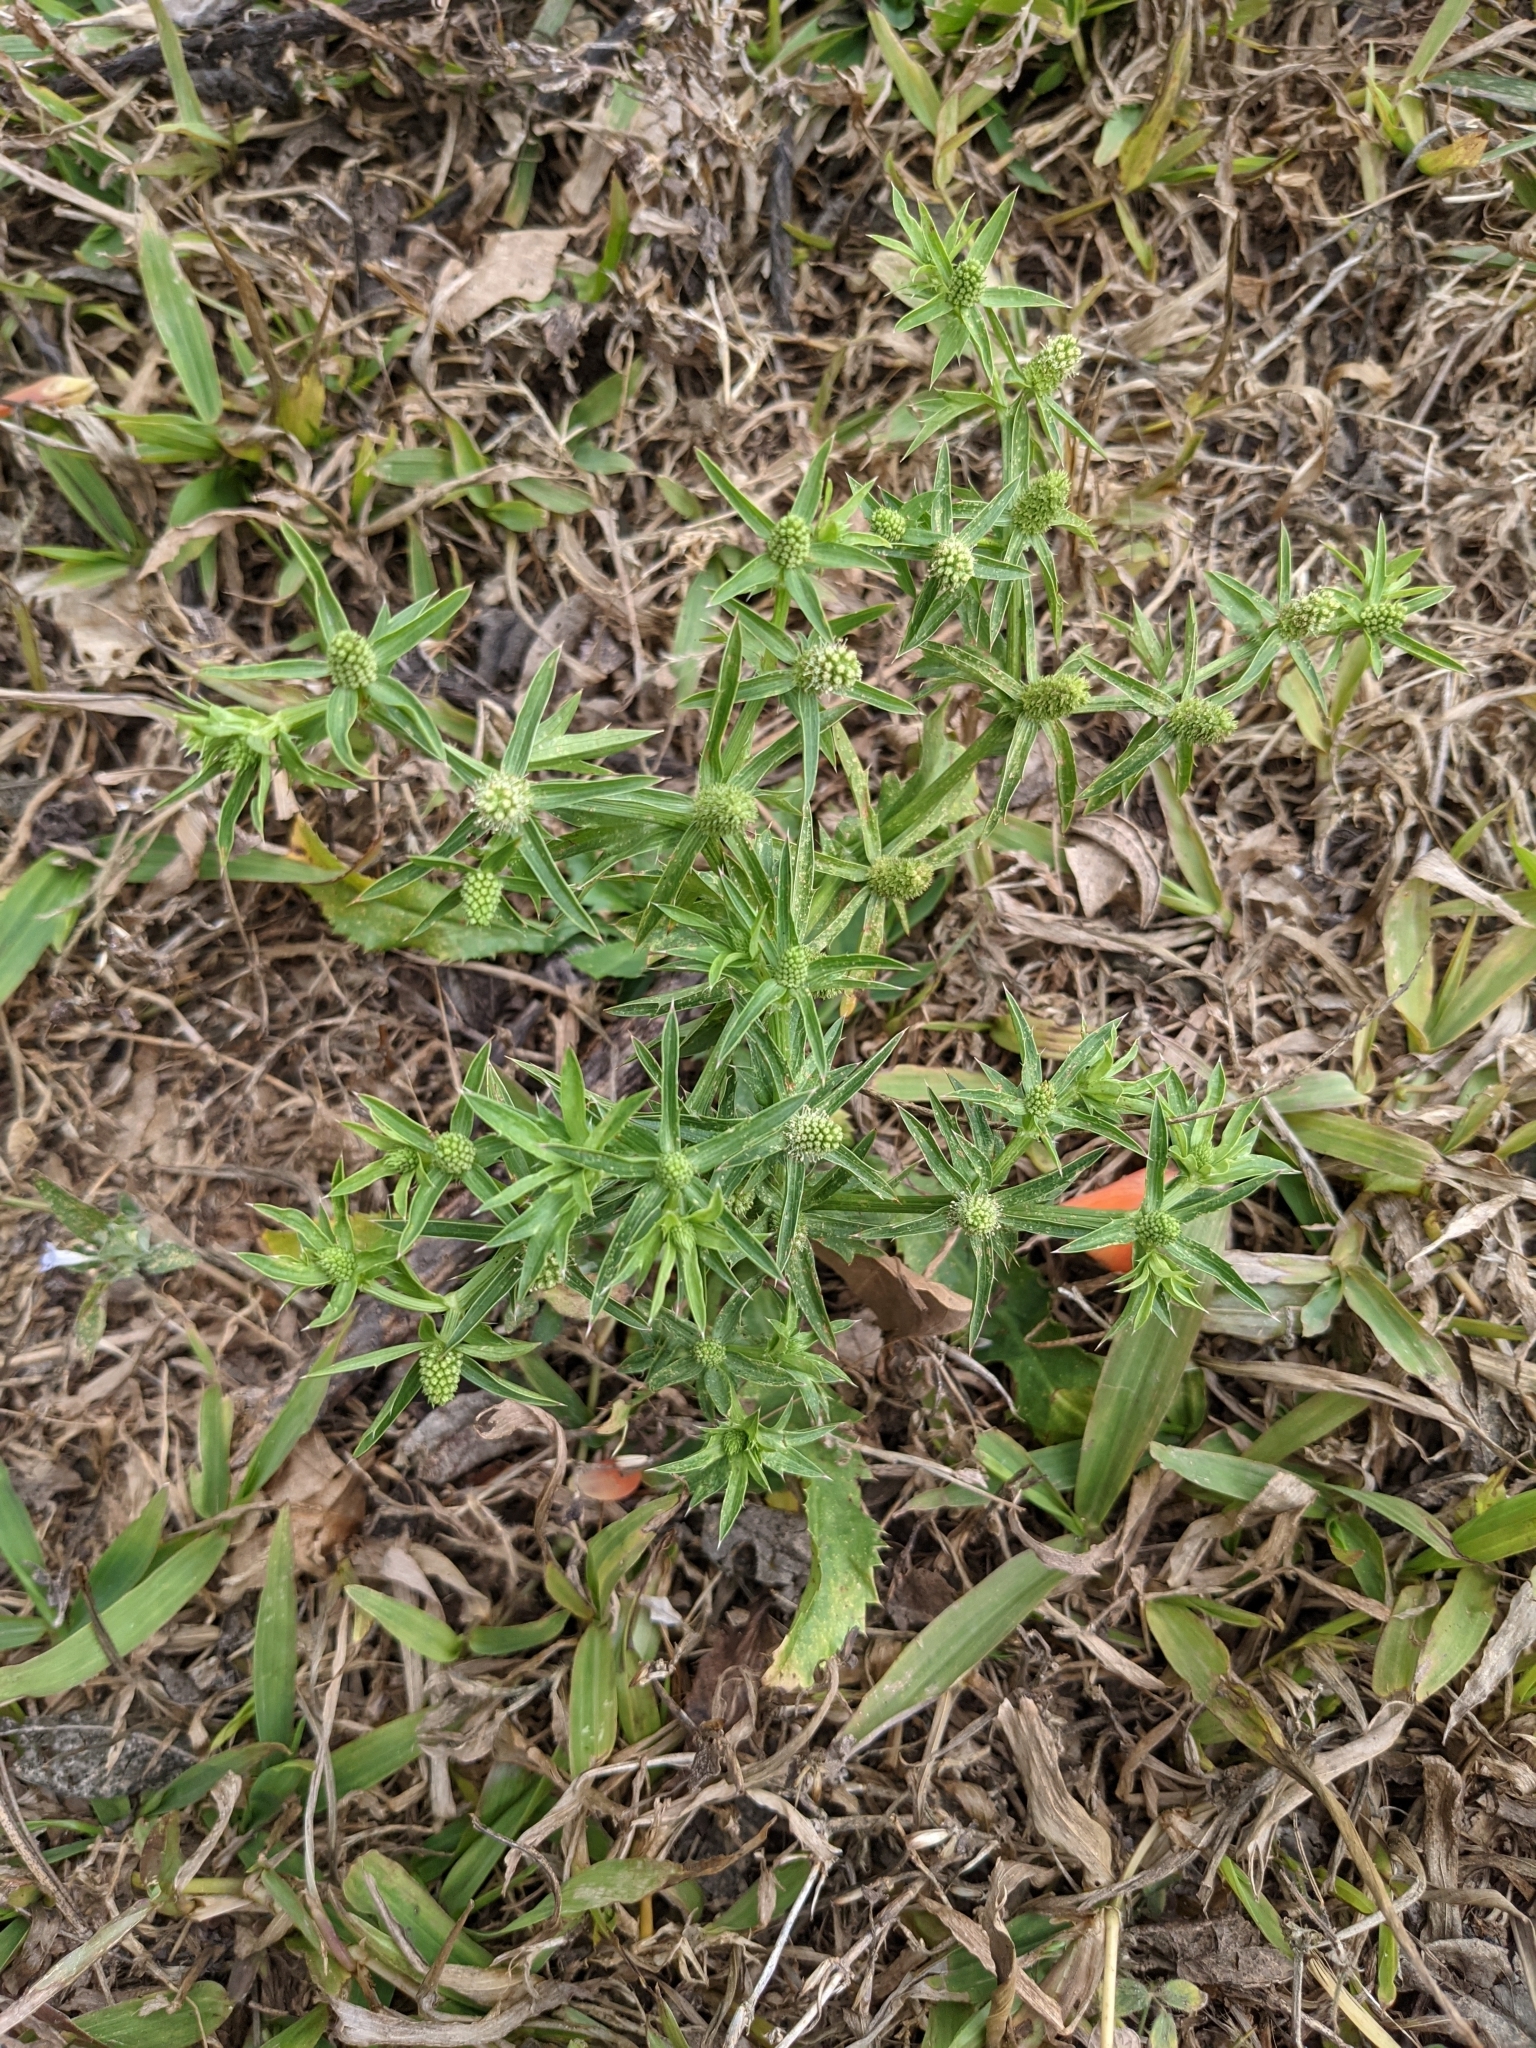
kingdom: Plantae
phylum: Tracheophyta
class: Magnoliopsida
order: Apiales
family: Apiaceae
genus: Eryngium
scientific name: Eryngium foetidum
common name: Fitweed
